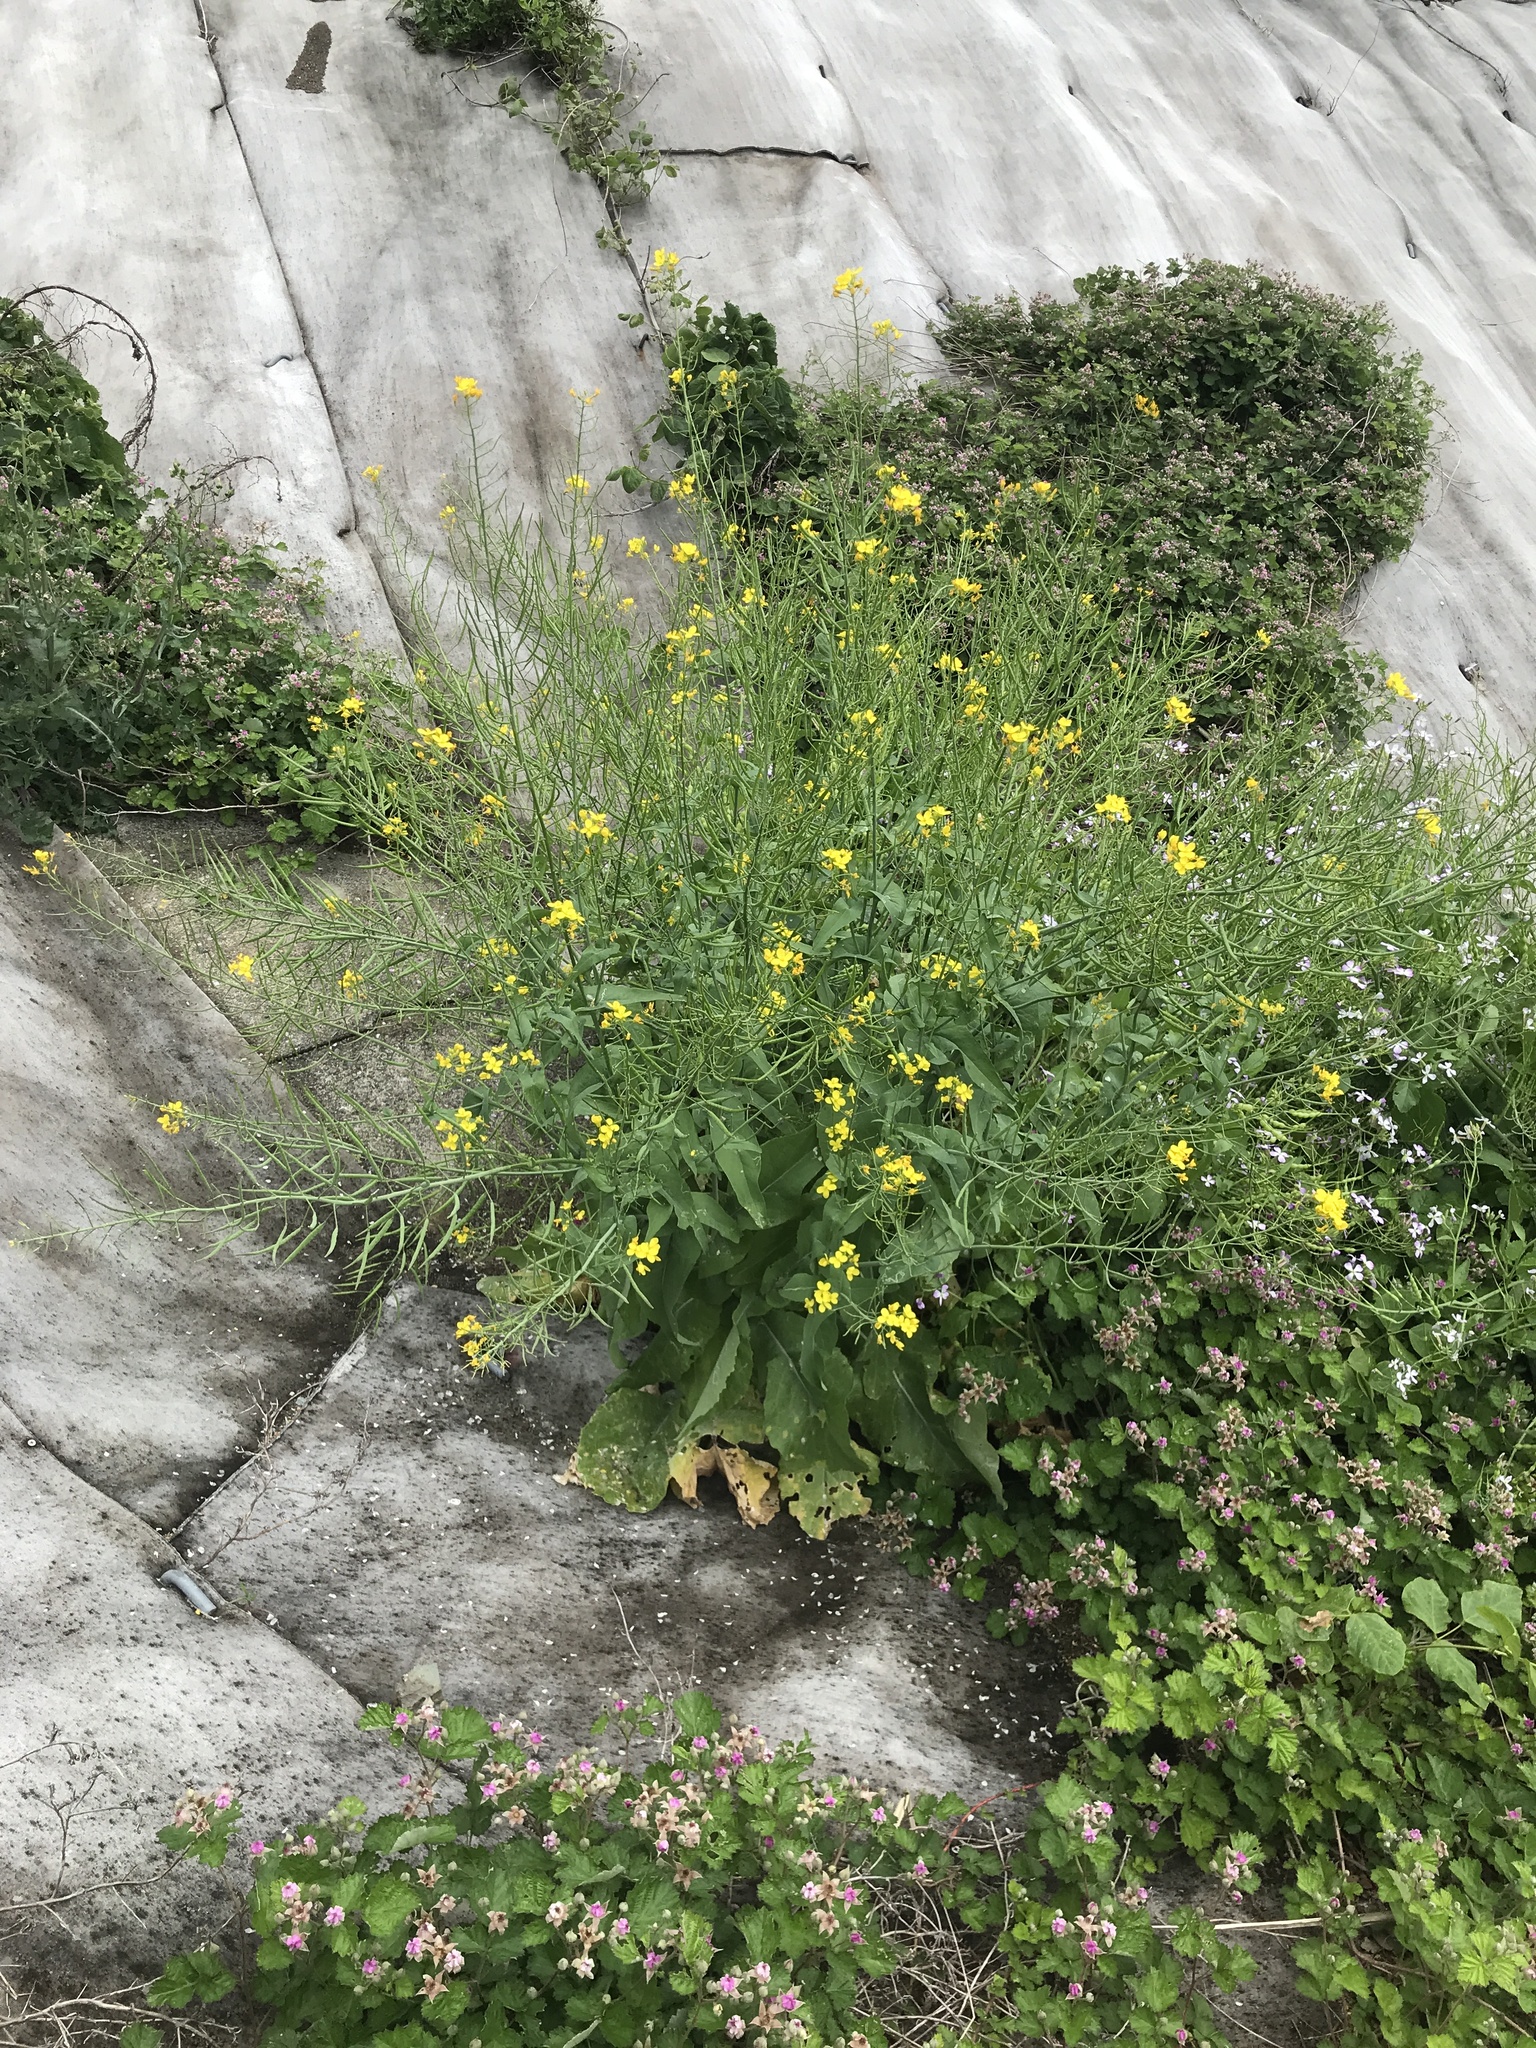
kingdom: Plantae
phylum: Tracheophyta
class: Magnoliopsida
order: Brassicales
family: Brassicaceae
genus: Brassica
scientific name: Brassica rapa
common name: Field mustard
